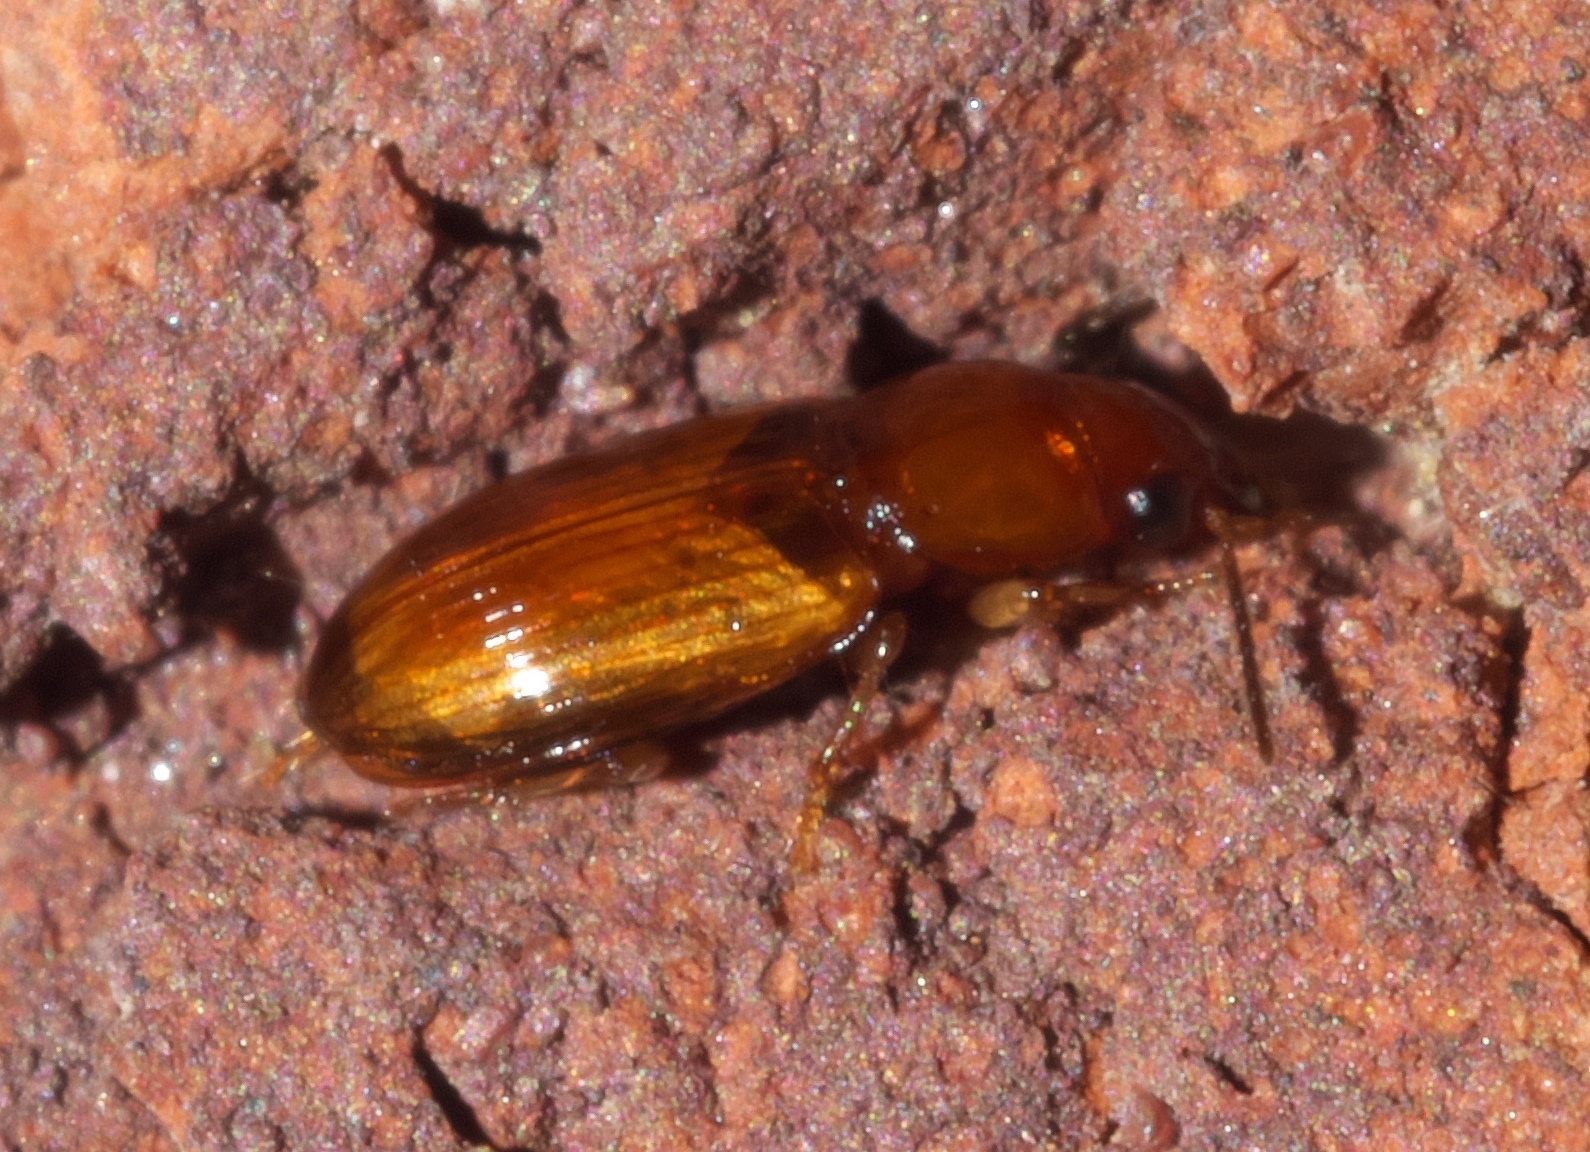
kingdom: Animalia
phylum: Arthropoda
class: Insecta
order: Coleoptera
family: Carabidae
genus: Acupalpus
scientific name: Acupalpus testaceus
